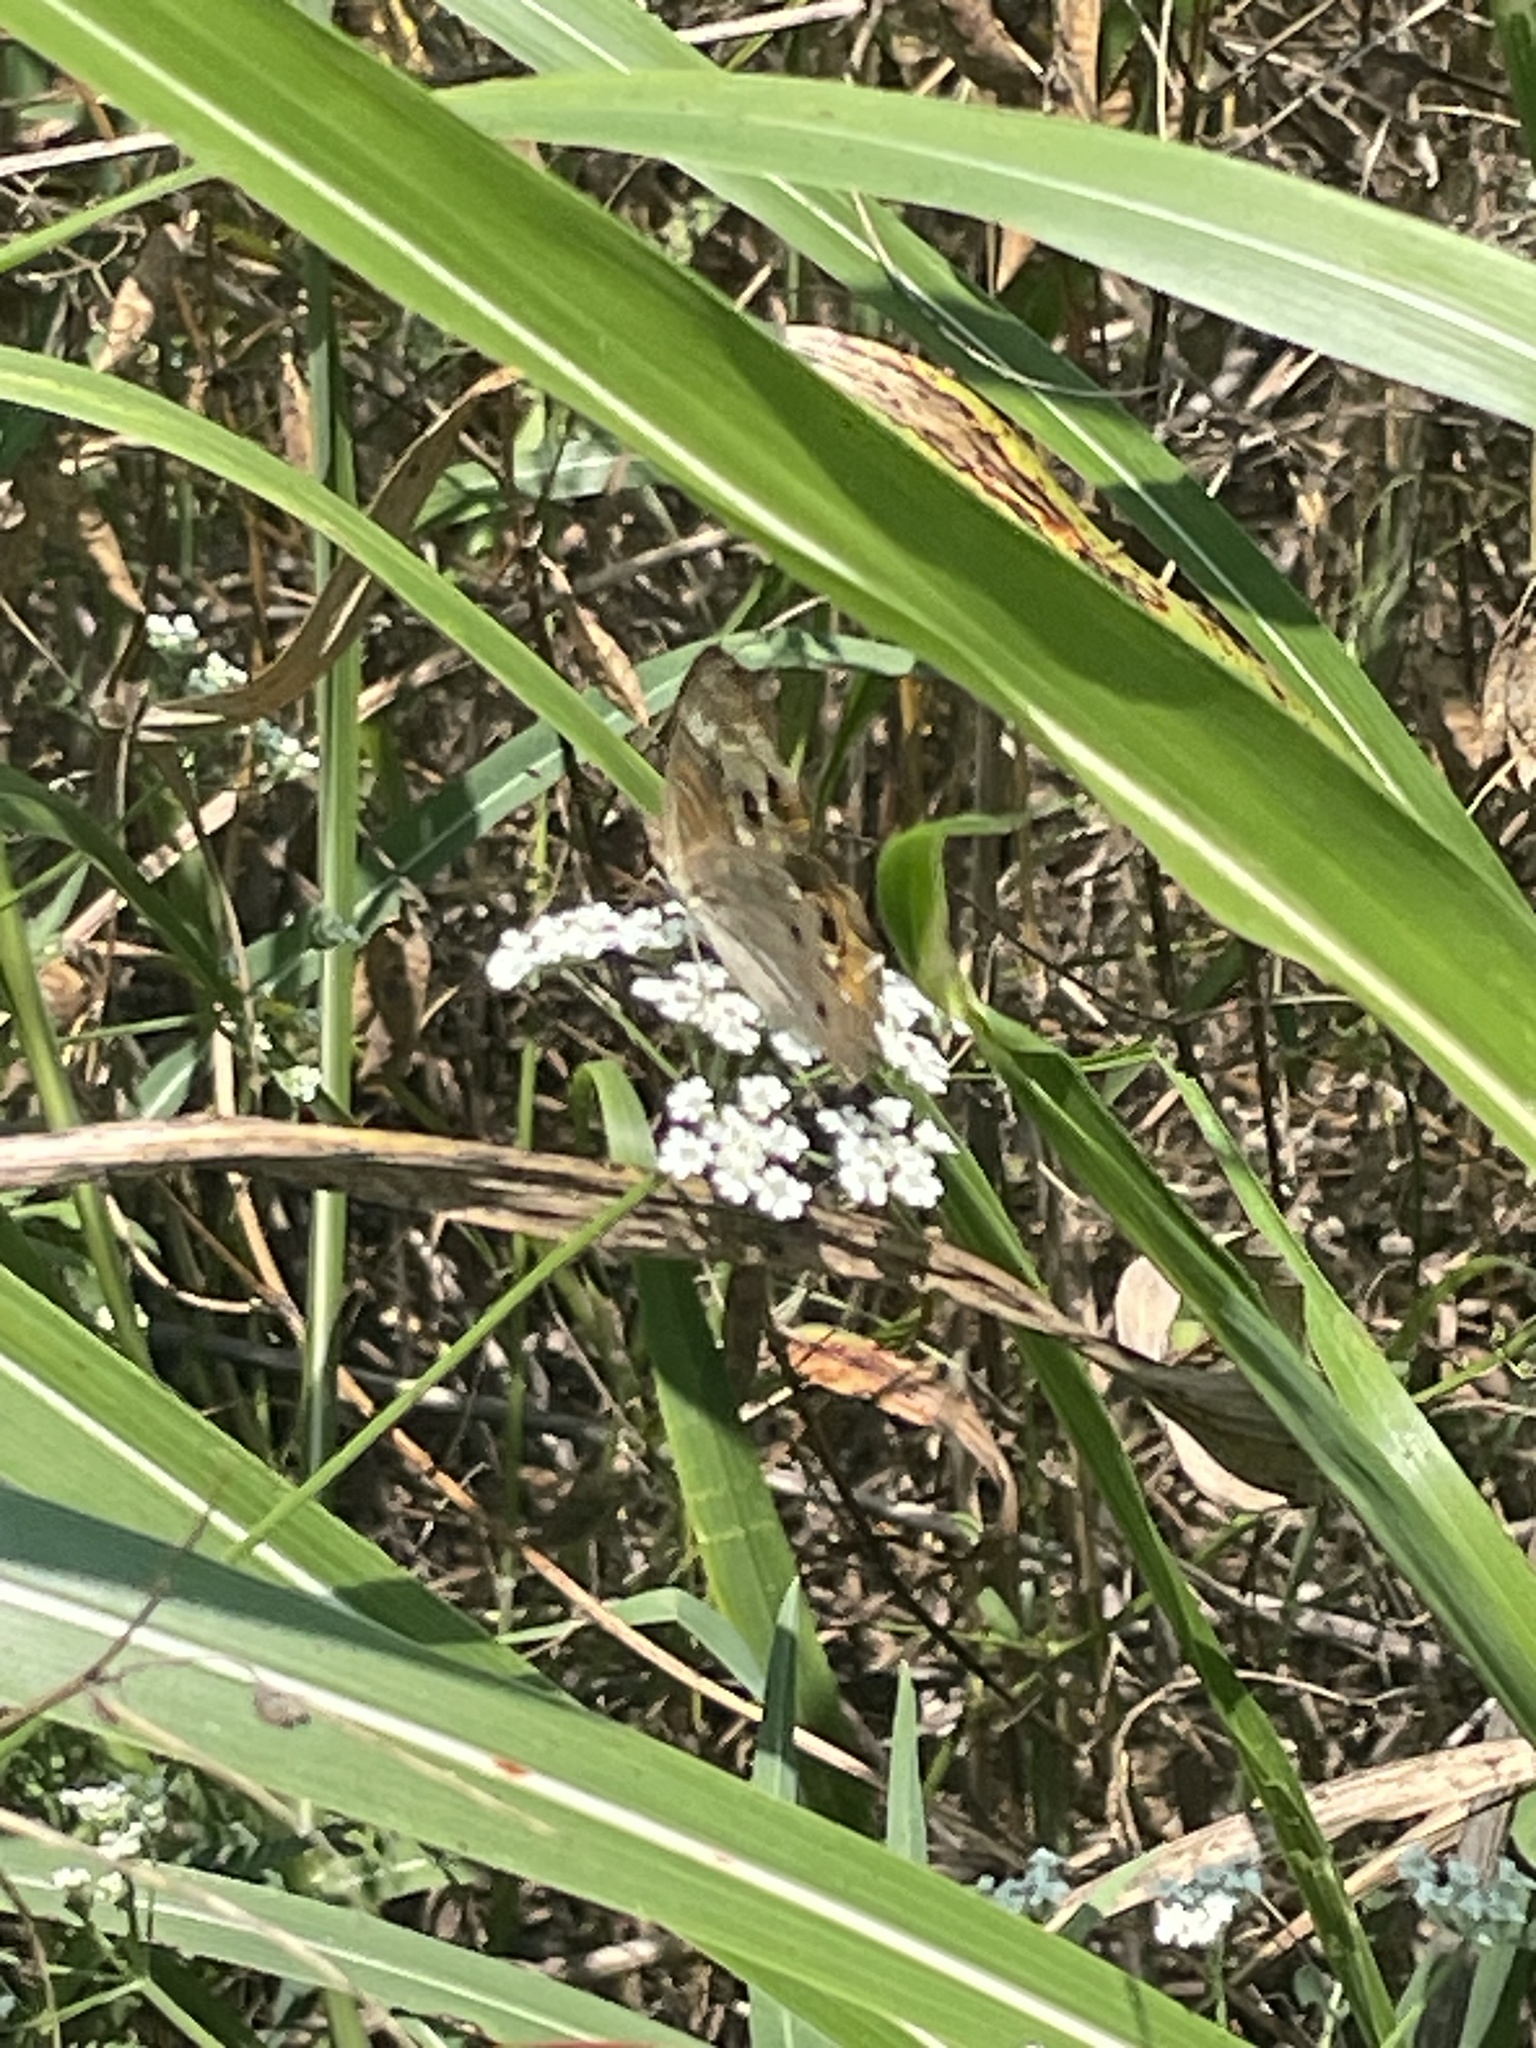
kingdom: Animalia
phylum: Arthropoda
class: Insecta
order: Lepidoptera
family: Nymphalidae
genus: Junonia
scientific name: Junonia coenia
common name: Common buckeye
